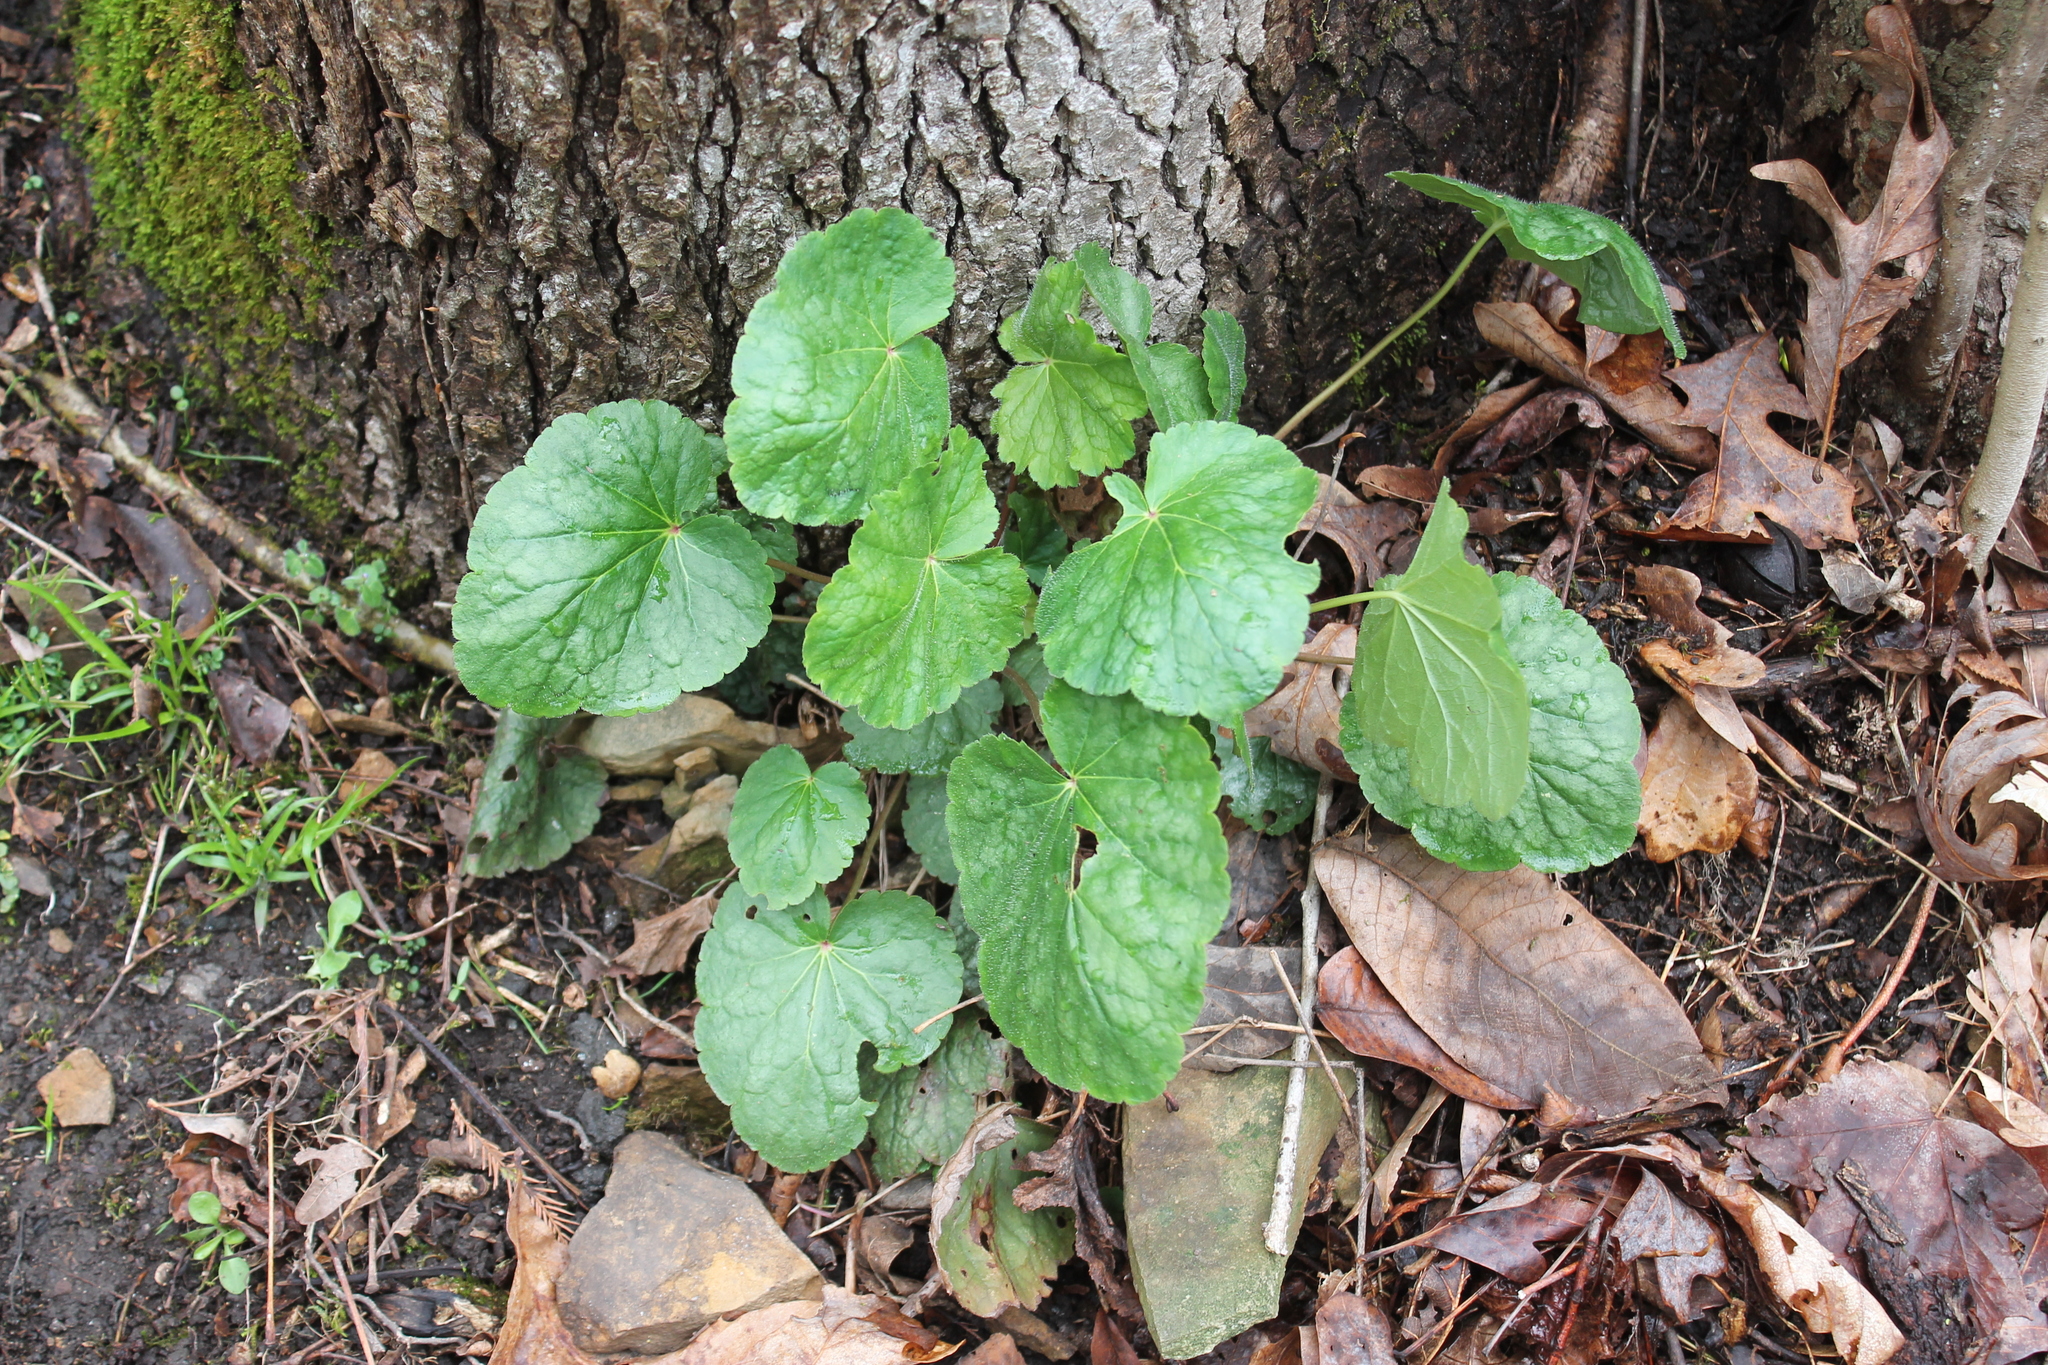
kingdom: Plantae
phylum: Tracheophyta
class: Magnoliopsida
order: Saxifragales
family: Saxifragaceae
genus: Heuchera
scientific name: Heuchera americana
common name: Alumroot
